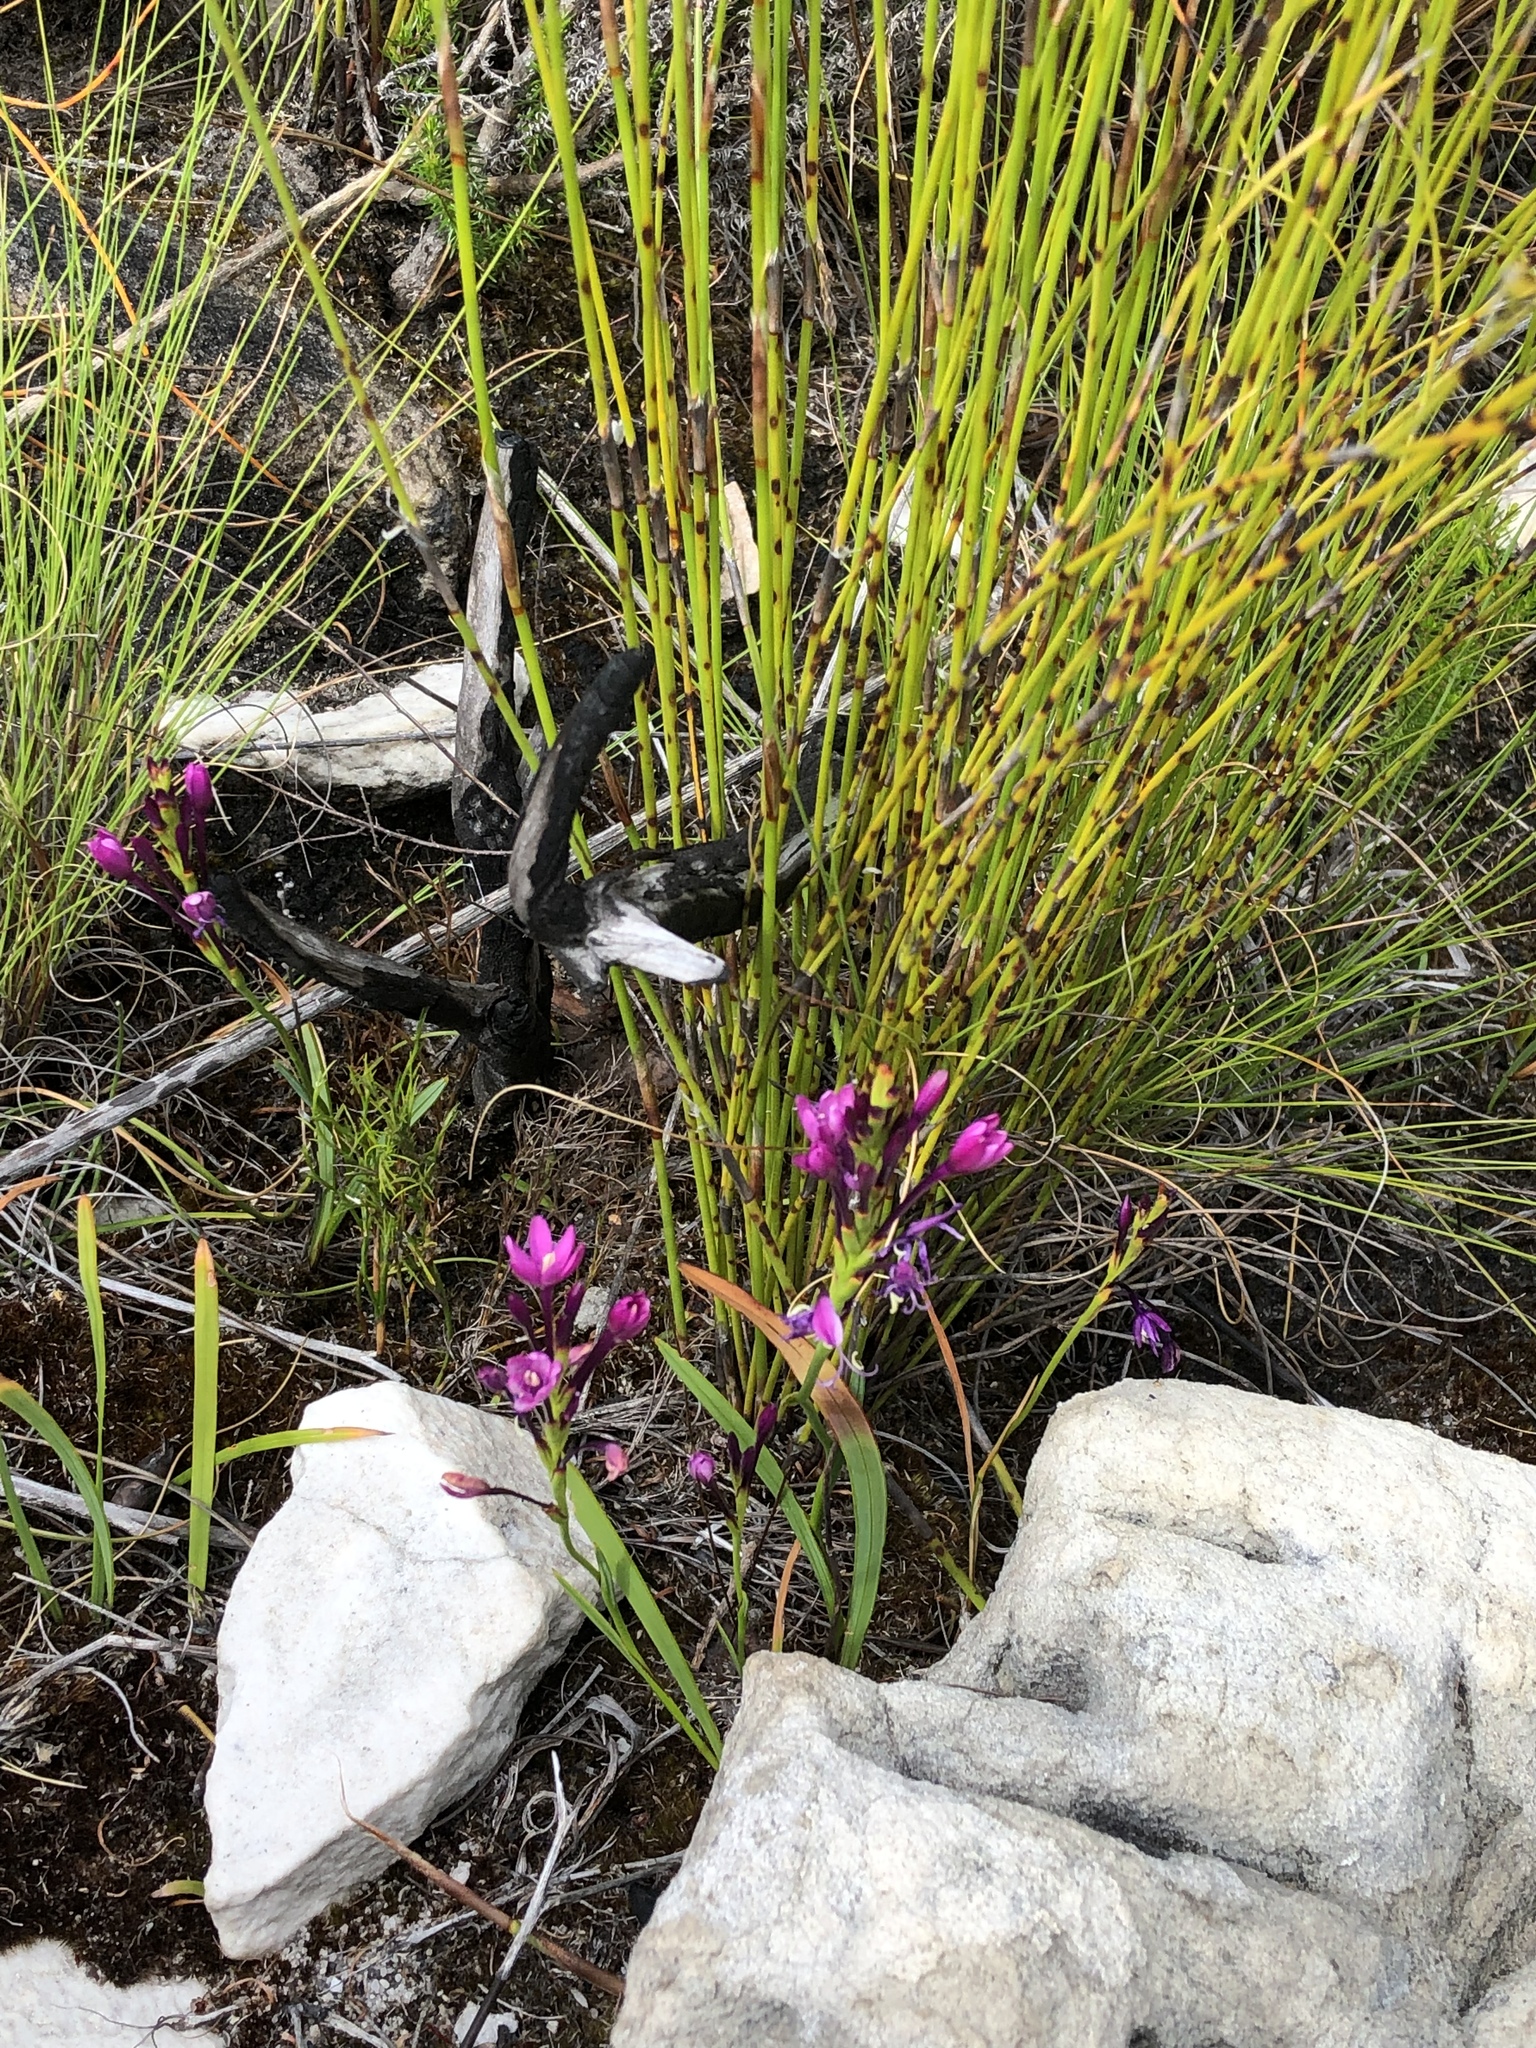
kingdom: Plantae
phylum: Tracheophyta
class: Liliopsida
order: Asparagales
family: Iridaceae
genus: Thereianthus
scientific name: Thereianthus minutus
